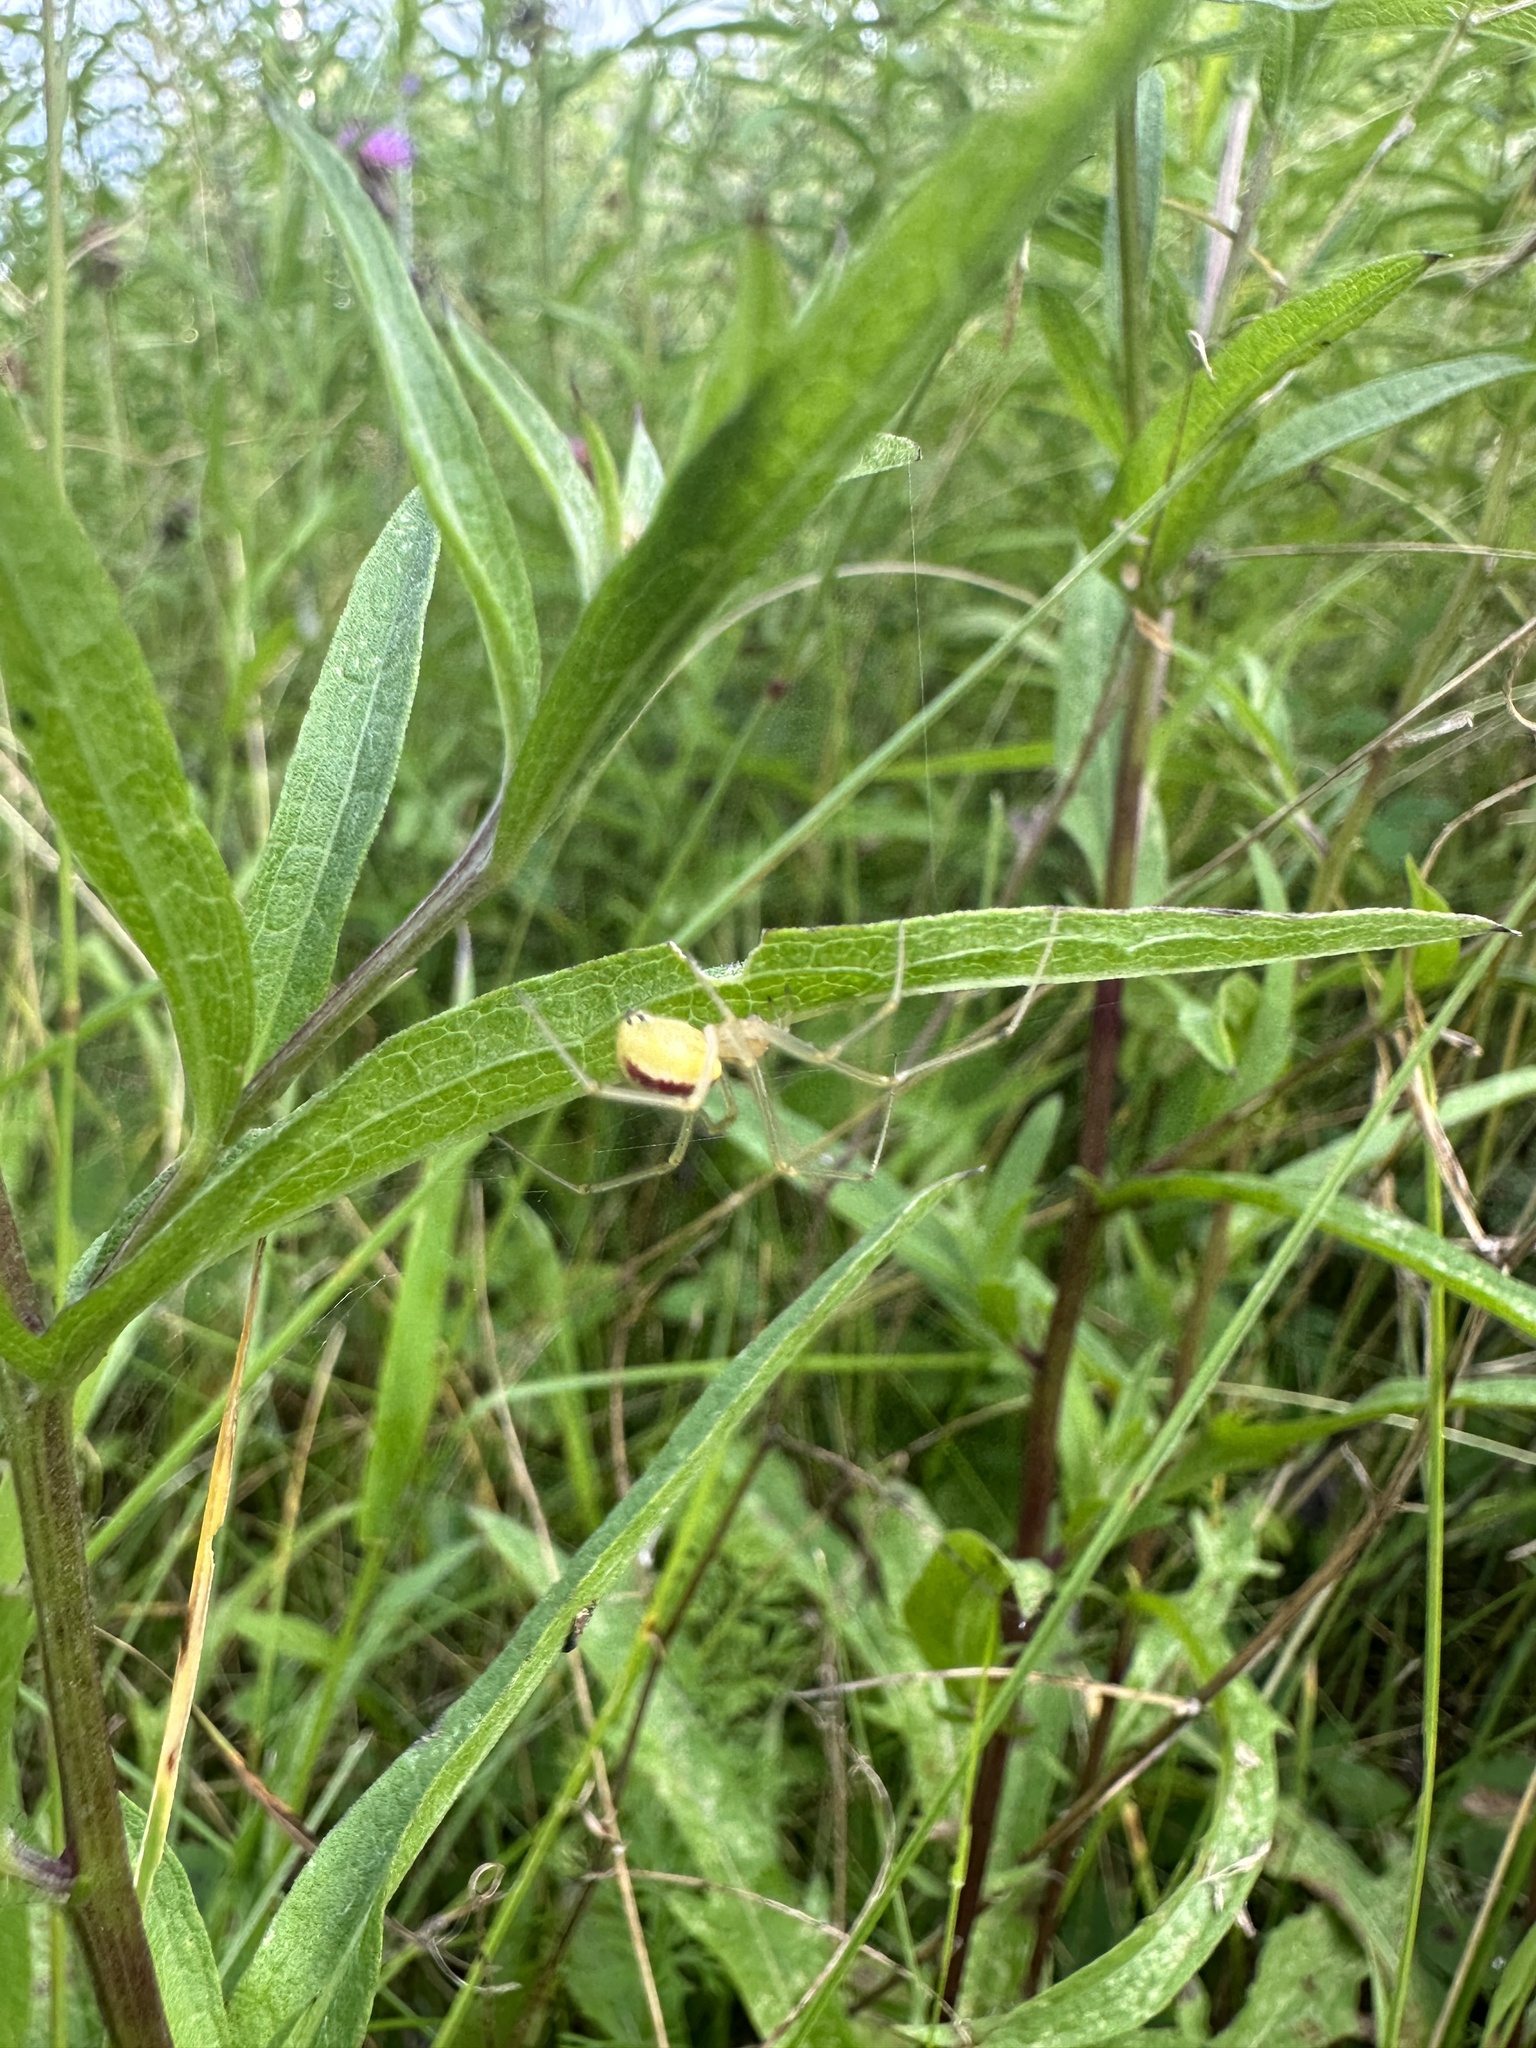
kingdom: Animalia
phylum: Arthropoda
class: Arachnida
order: Araneae
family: Theridiidae
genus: Enoplognatha
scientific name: Enoplognatha ovata
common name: Common candy-striped spider
